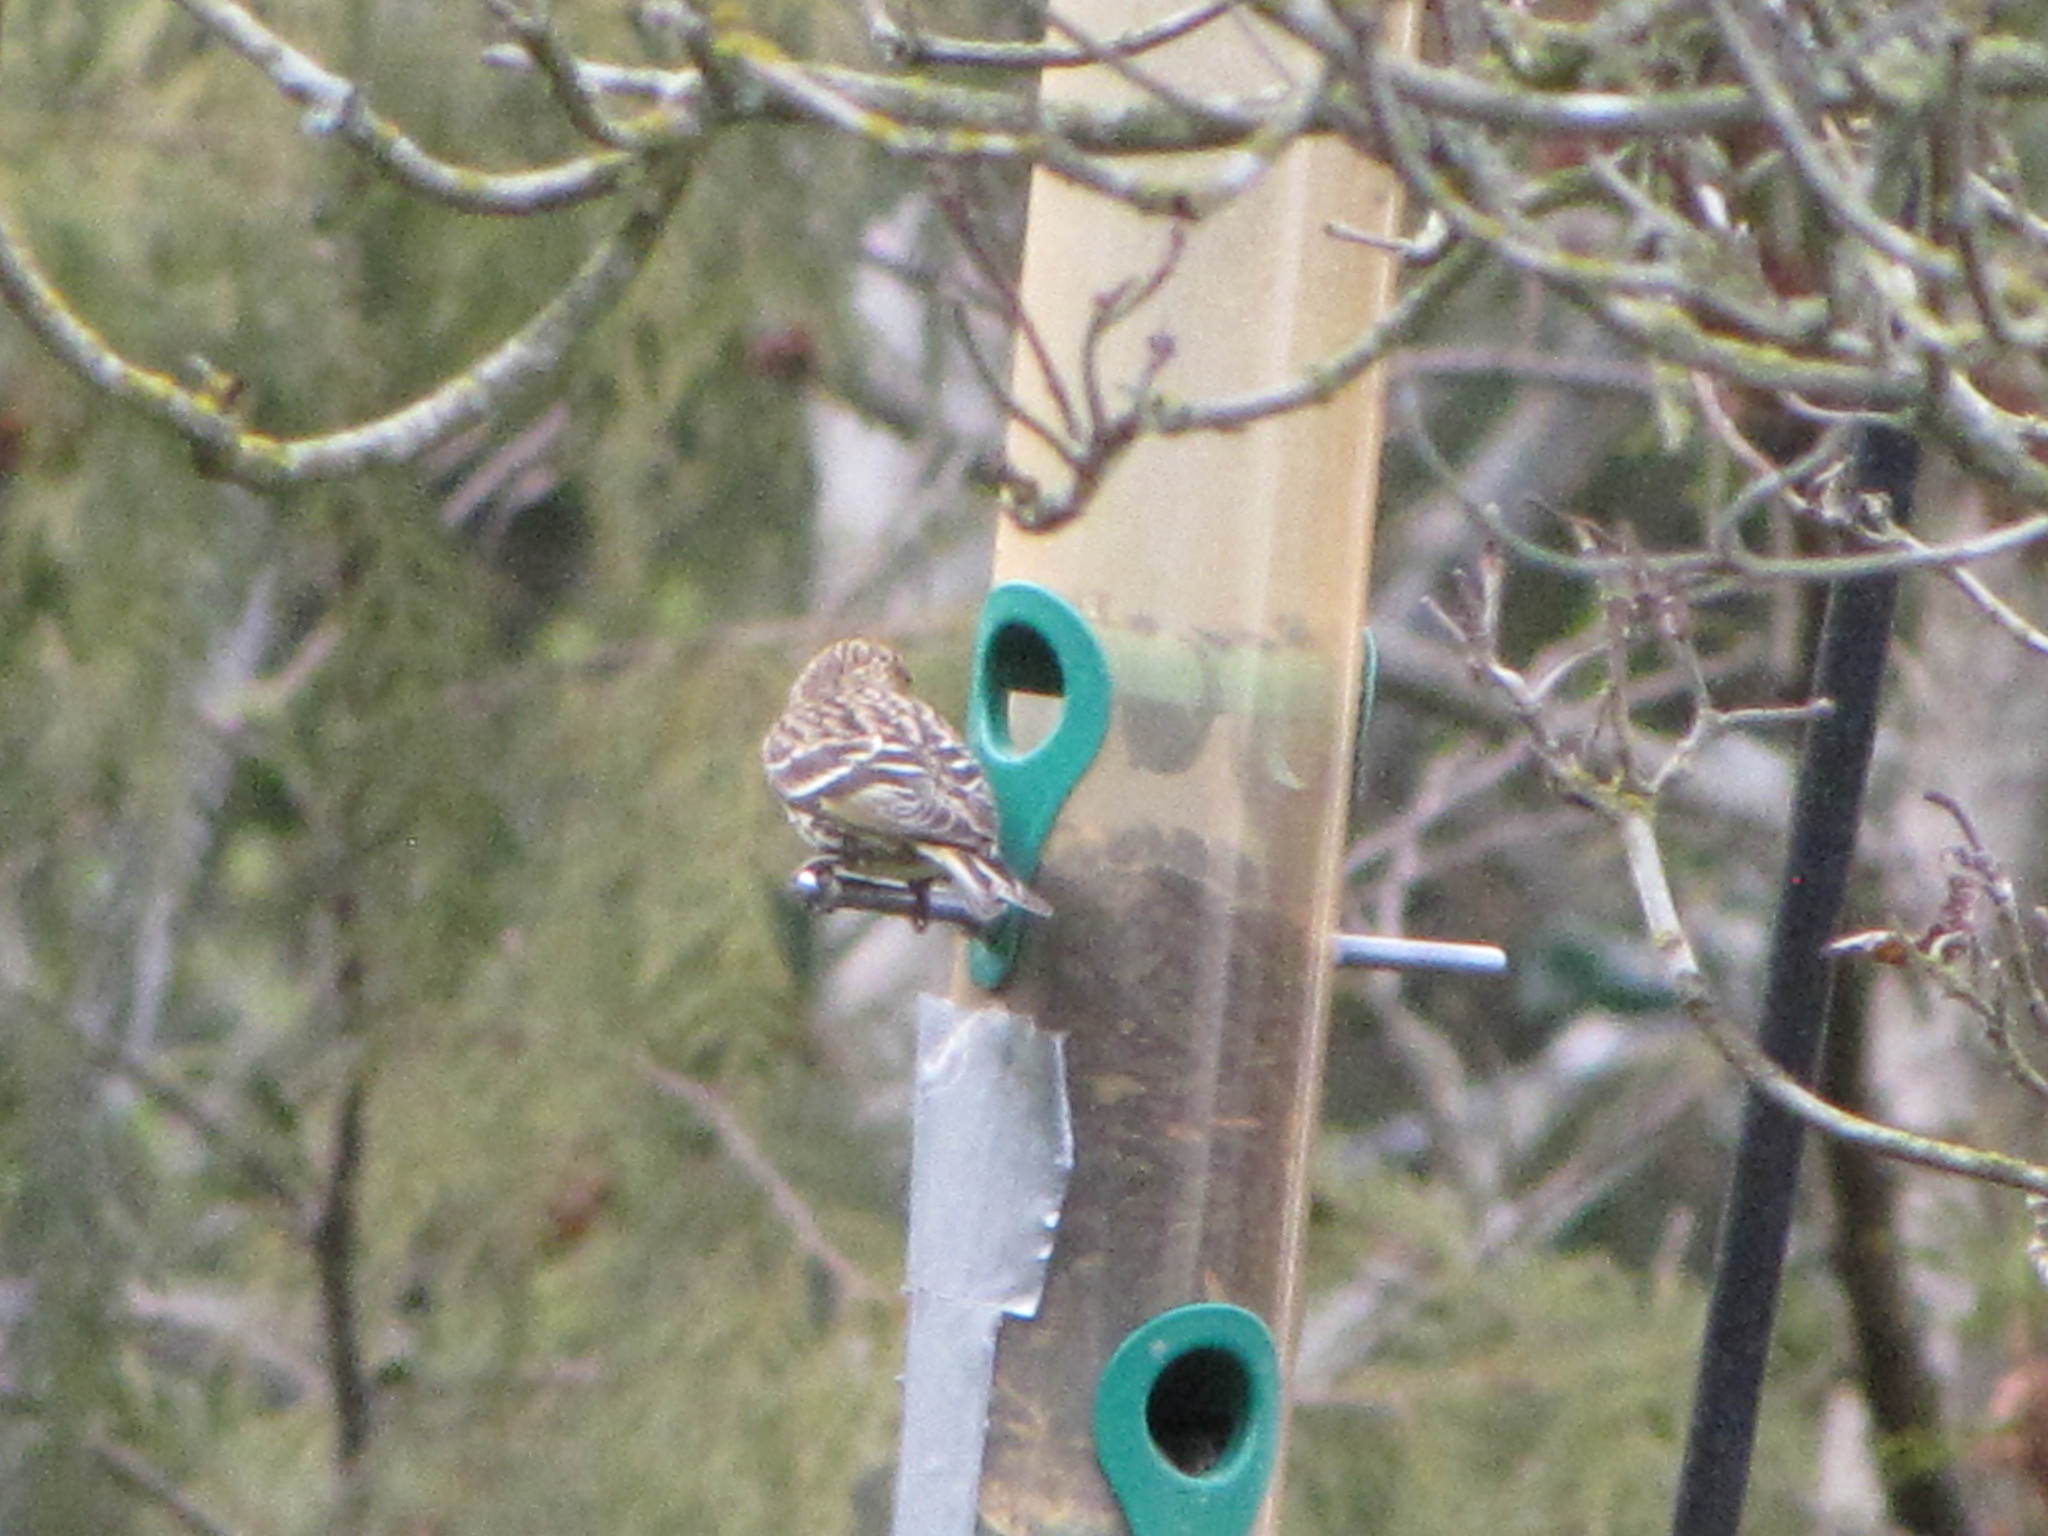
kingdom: Animalia
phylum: Chordata
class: Aves
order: Passeriformes
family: Fringillidae
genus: Spinus
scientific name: Spinus pinus
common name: Pine siskin
